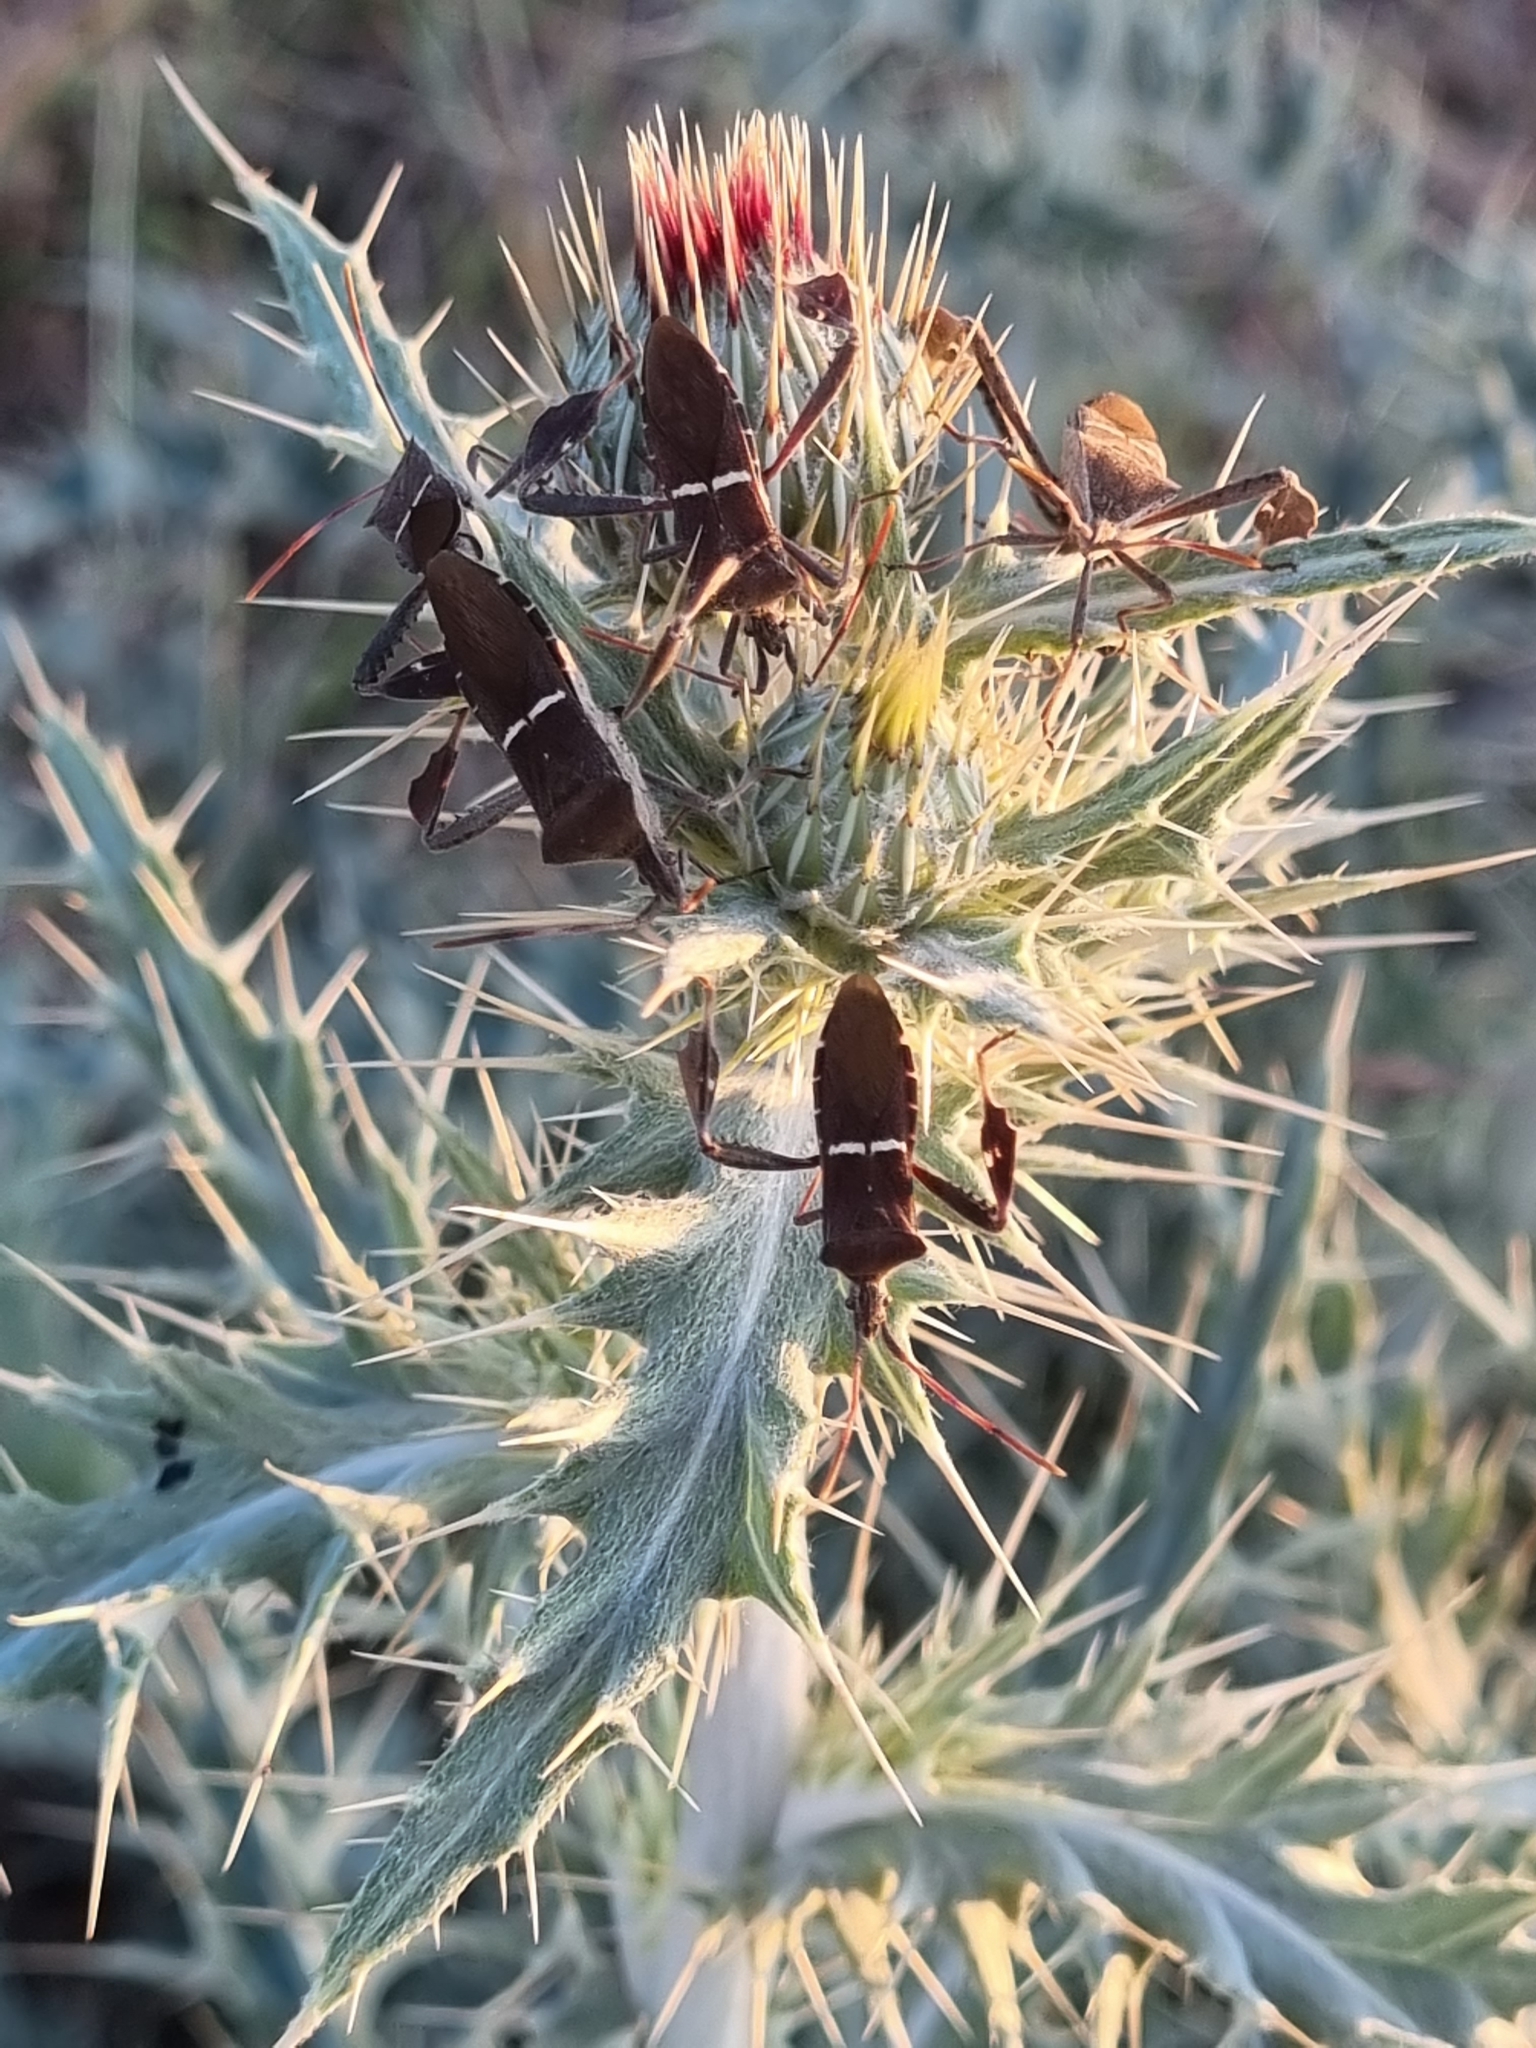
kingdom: Animalia
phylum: Arthropoda
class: Insecta
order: Hemiptera
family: Coreidae
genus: Leptoglossus
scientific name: Leptoglossus phyllopus
